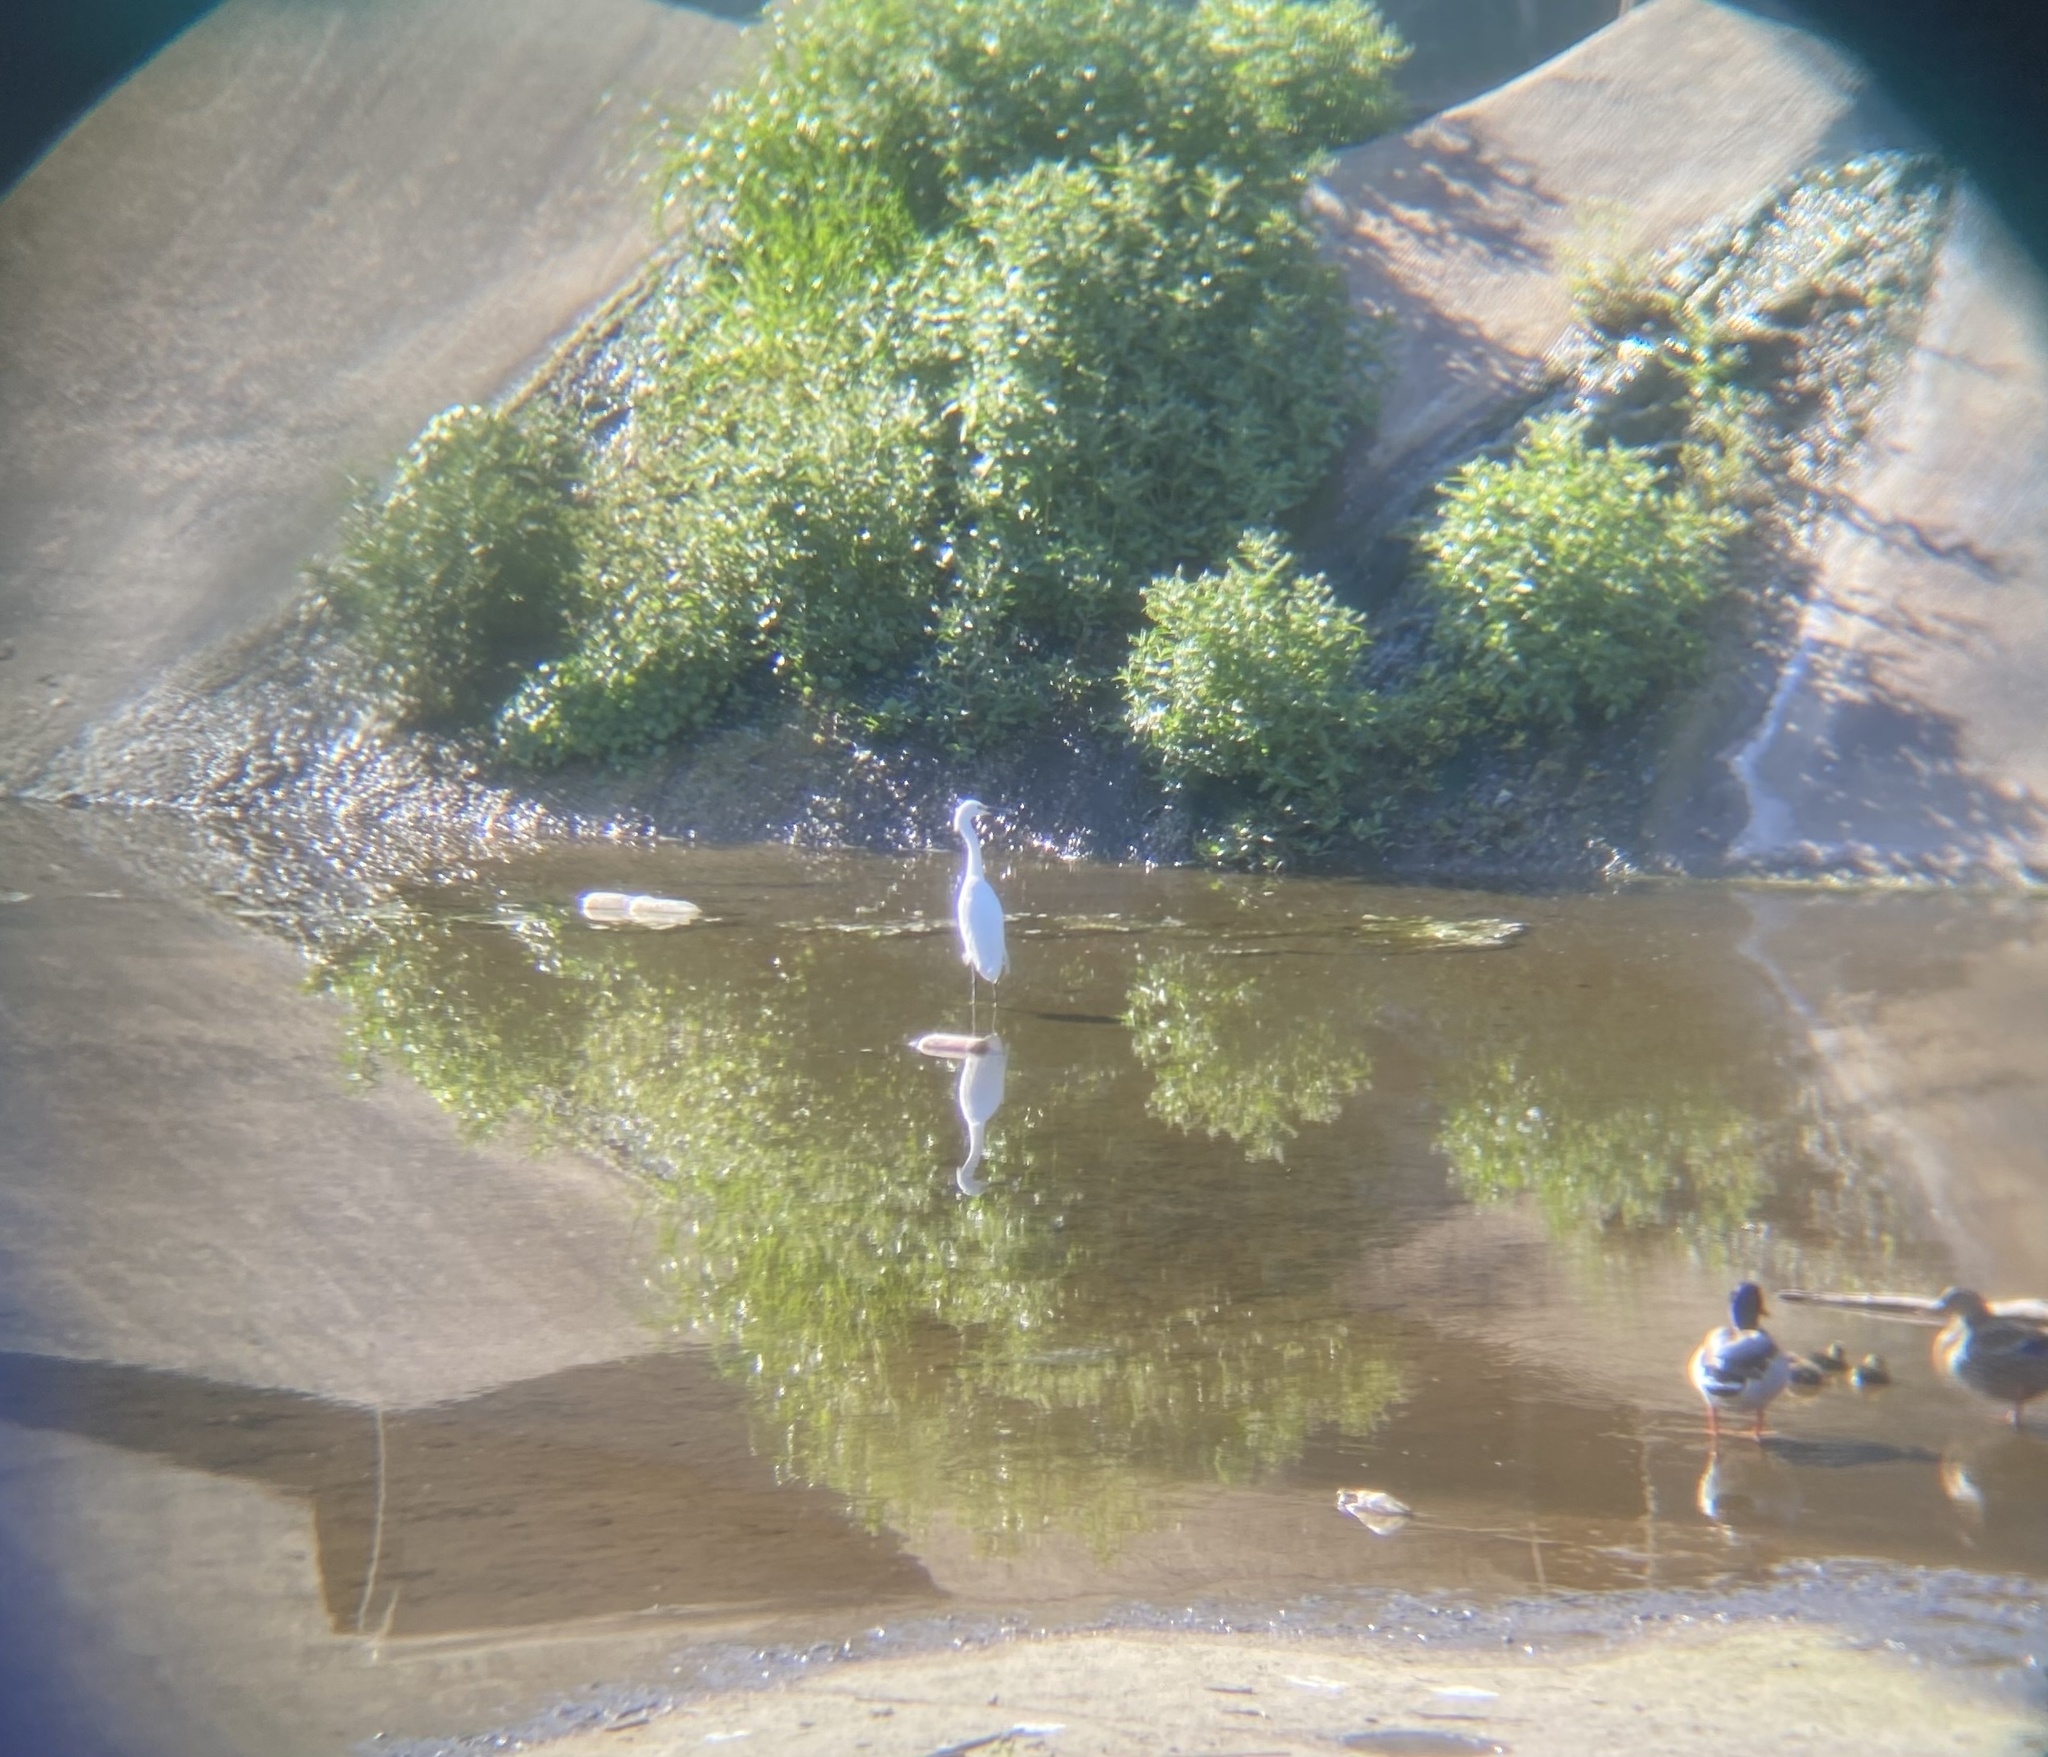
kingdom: Animalia
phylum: Chordata
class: Aves
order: Pelecaniformes
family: Ardeidae
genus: Egretta
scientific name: Egretta thula
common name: Snowy egret
